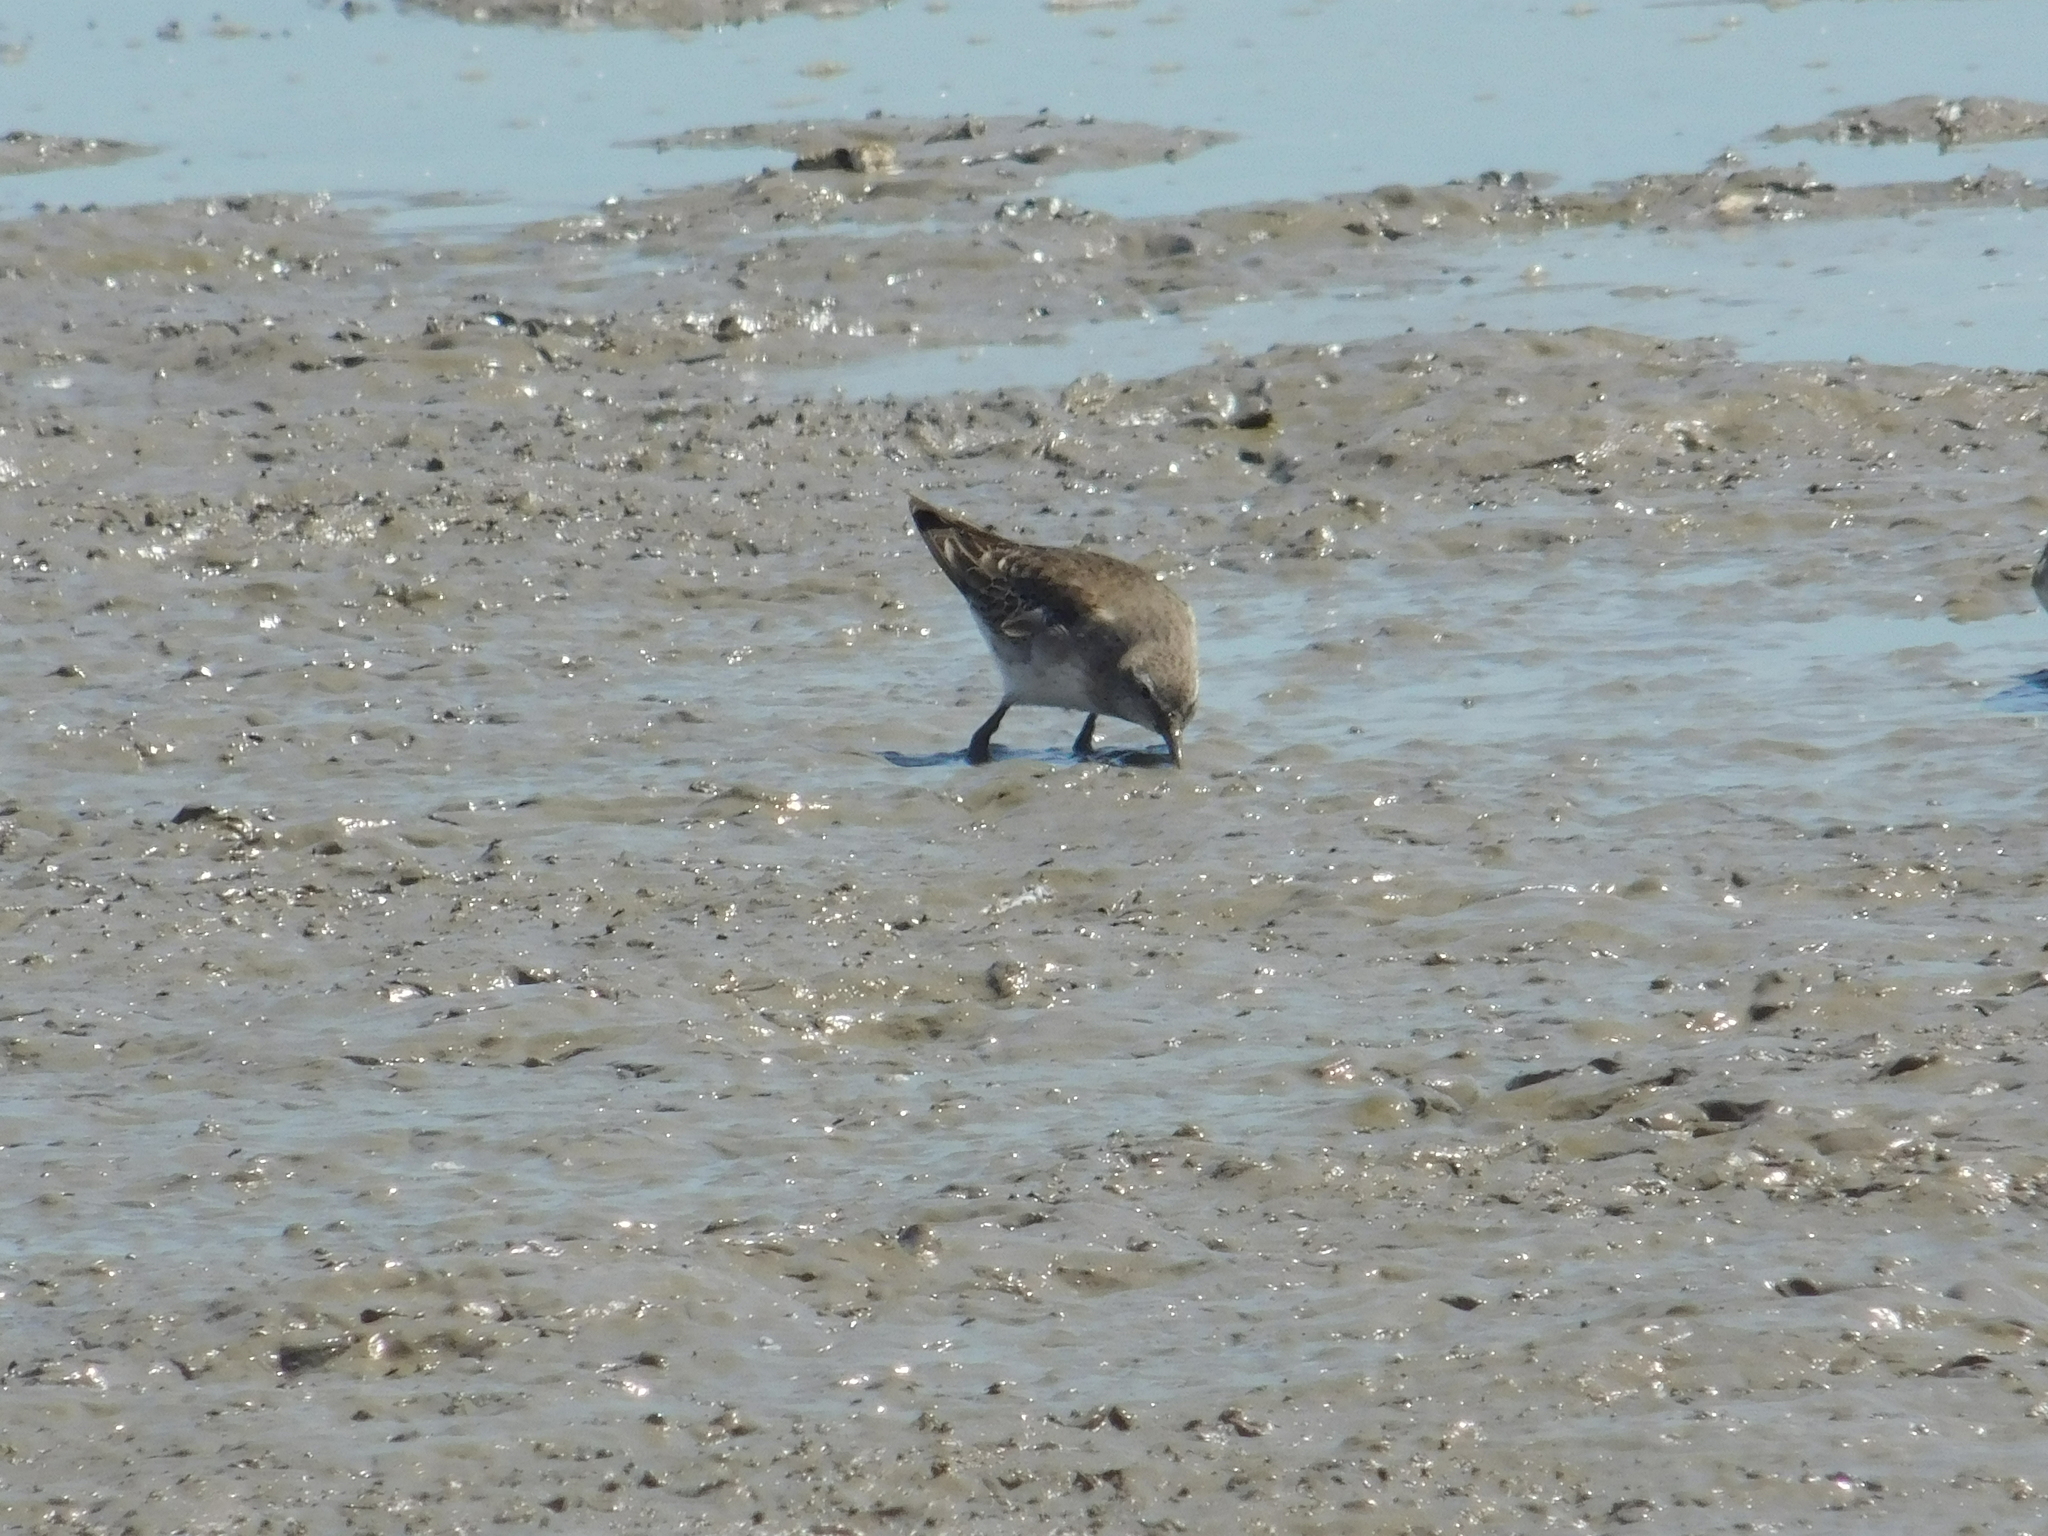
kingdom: Animalia
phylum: Chordata
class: Aves
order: Charadriiformes
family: Scolopacidae
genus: Calidris
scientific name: Calidris fuscicollis
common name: White-rumped sandpiper
